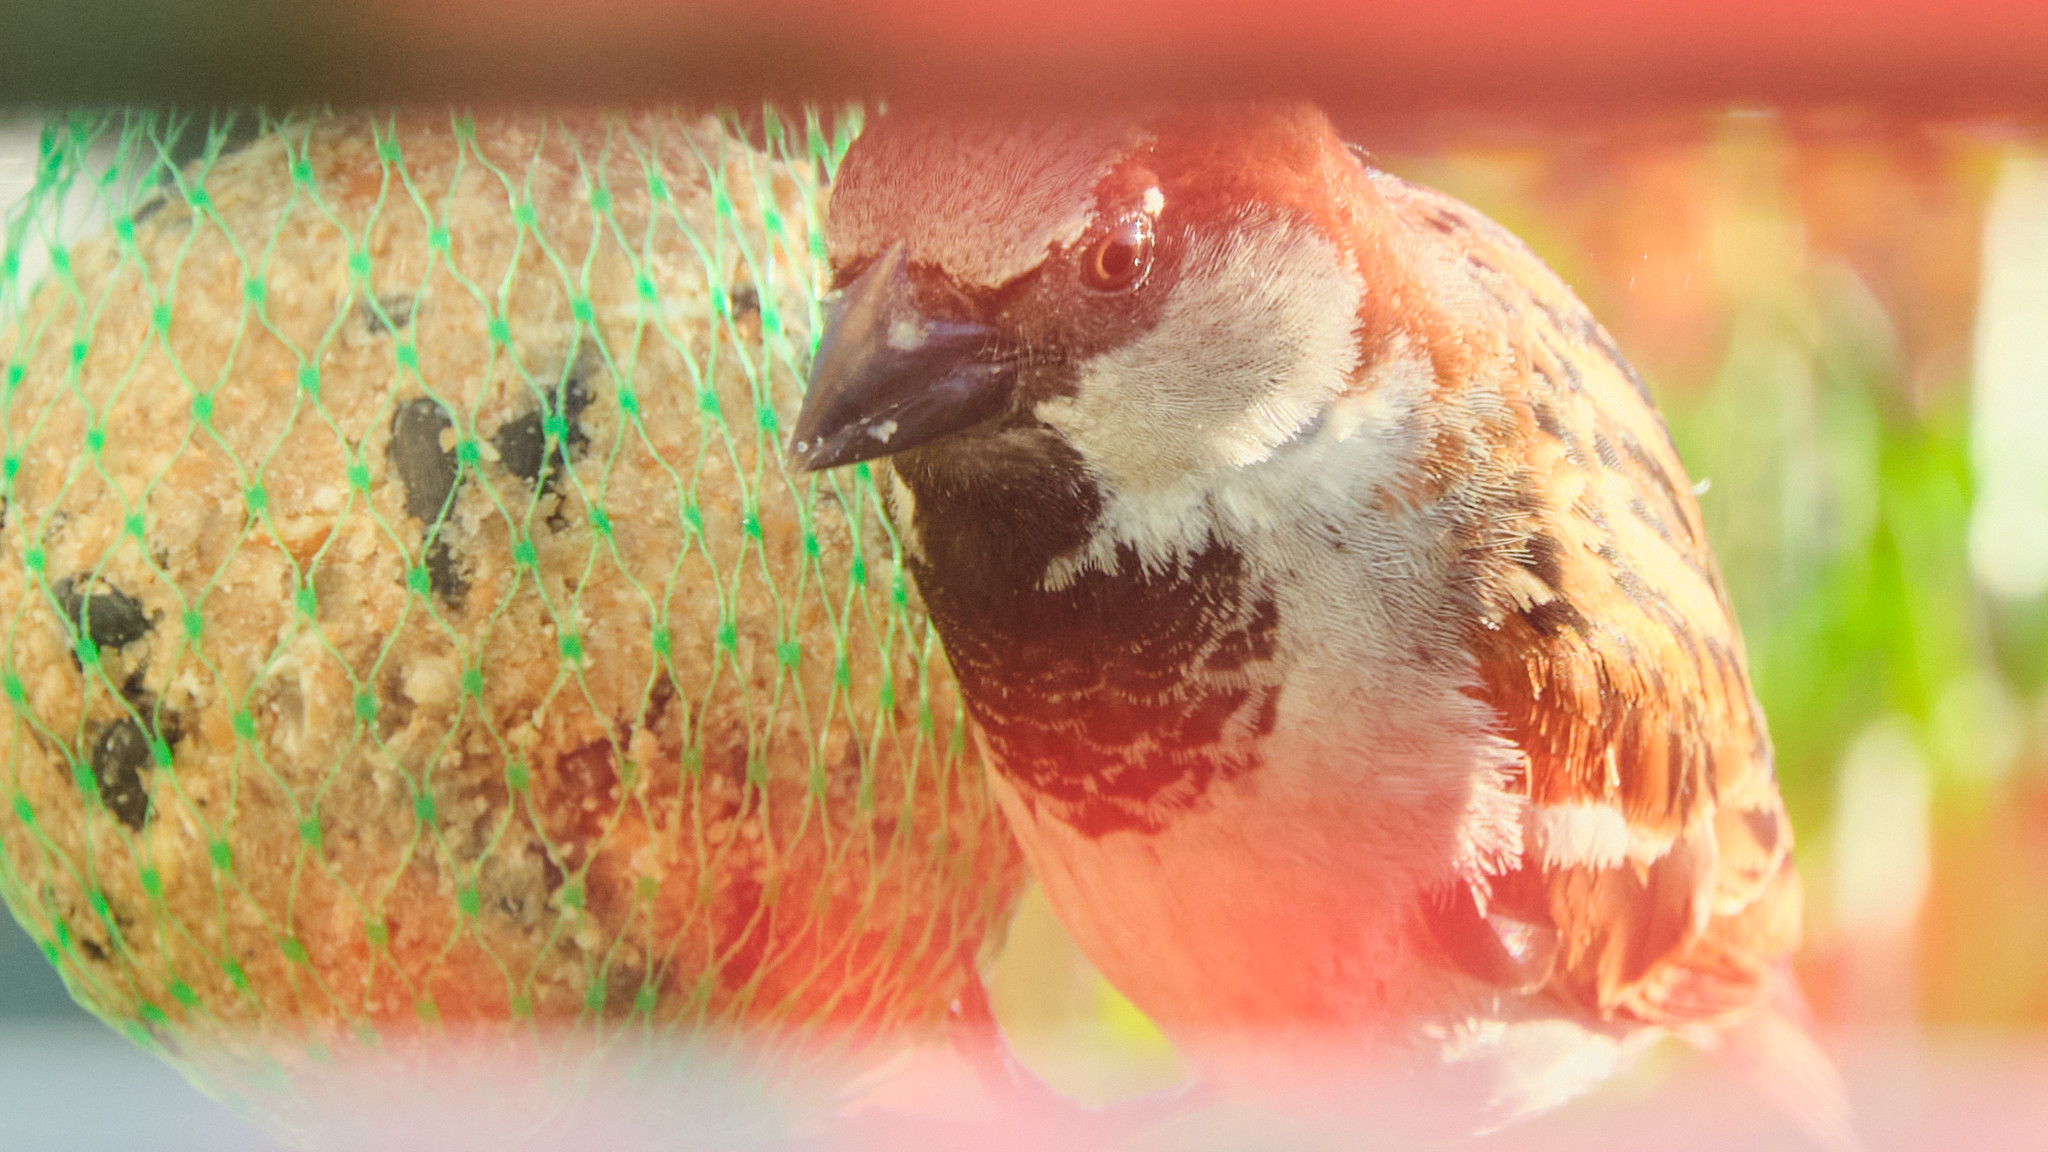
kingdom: Animalia
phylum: Chordata
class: Aves
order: Passeriformes
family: Passeridae
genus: Passer
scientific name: Passer domesticus
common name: House sparrow
